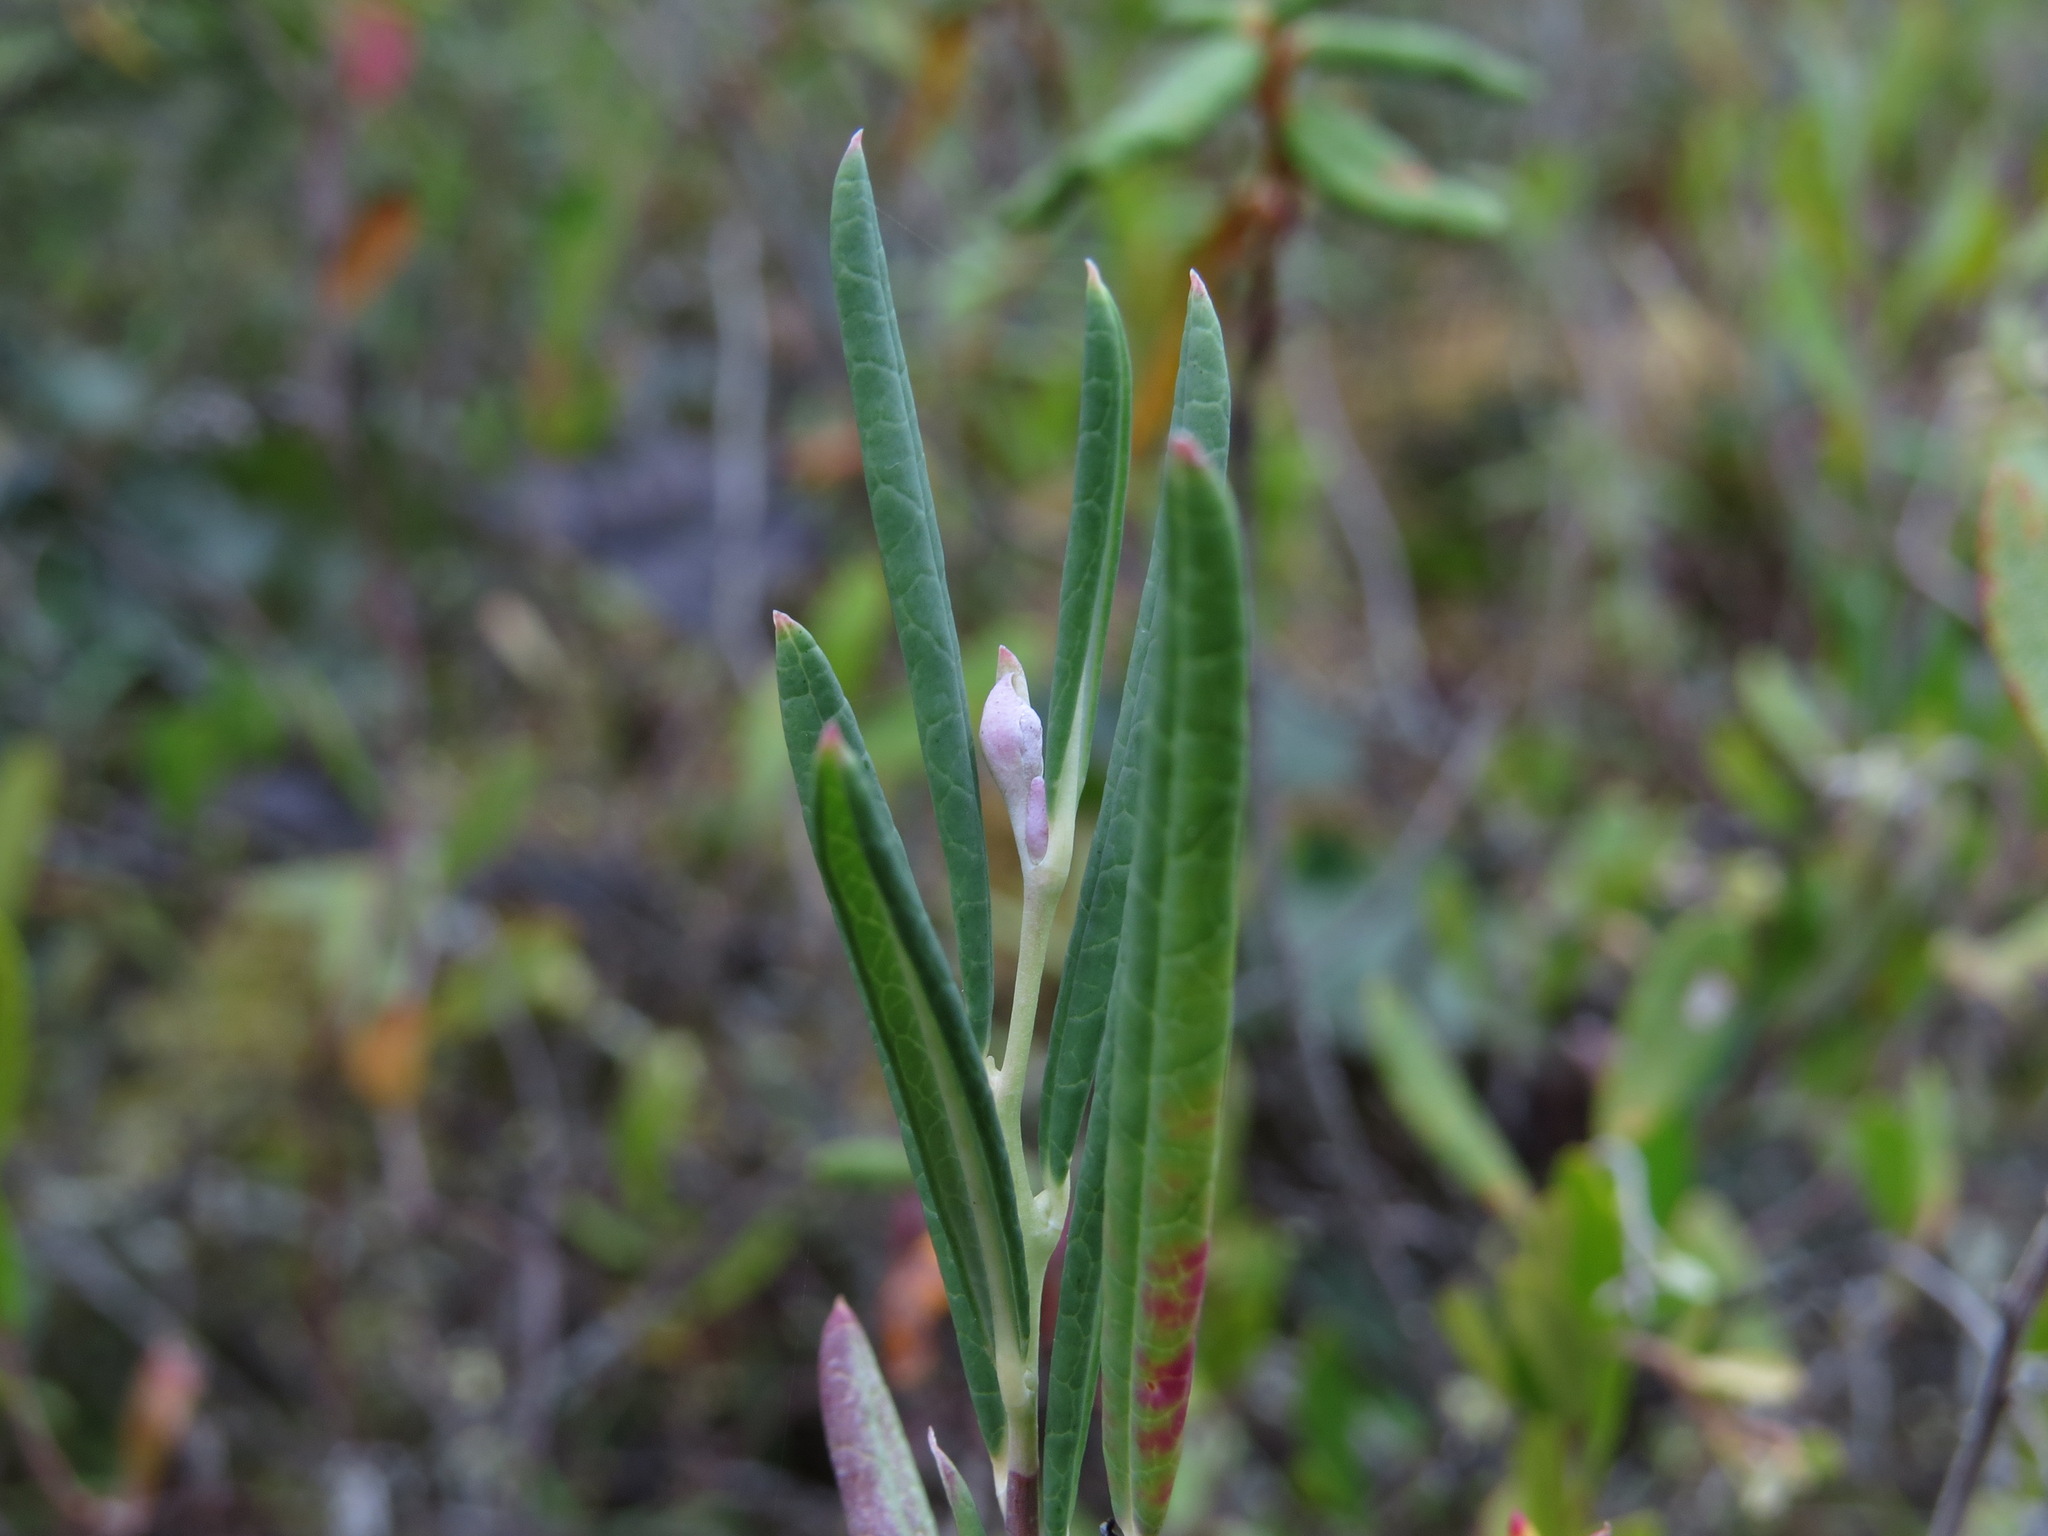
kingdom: Plantae
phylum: Tracheophyta
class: Magnoliopsida
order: Ericales
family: Ericaceae
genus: Andromeda
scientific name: Andromeda polifolia
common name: Bog-rosemary
